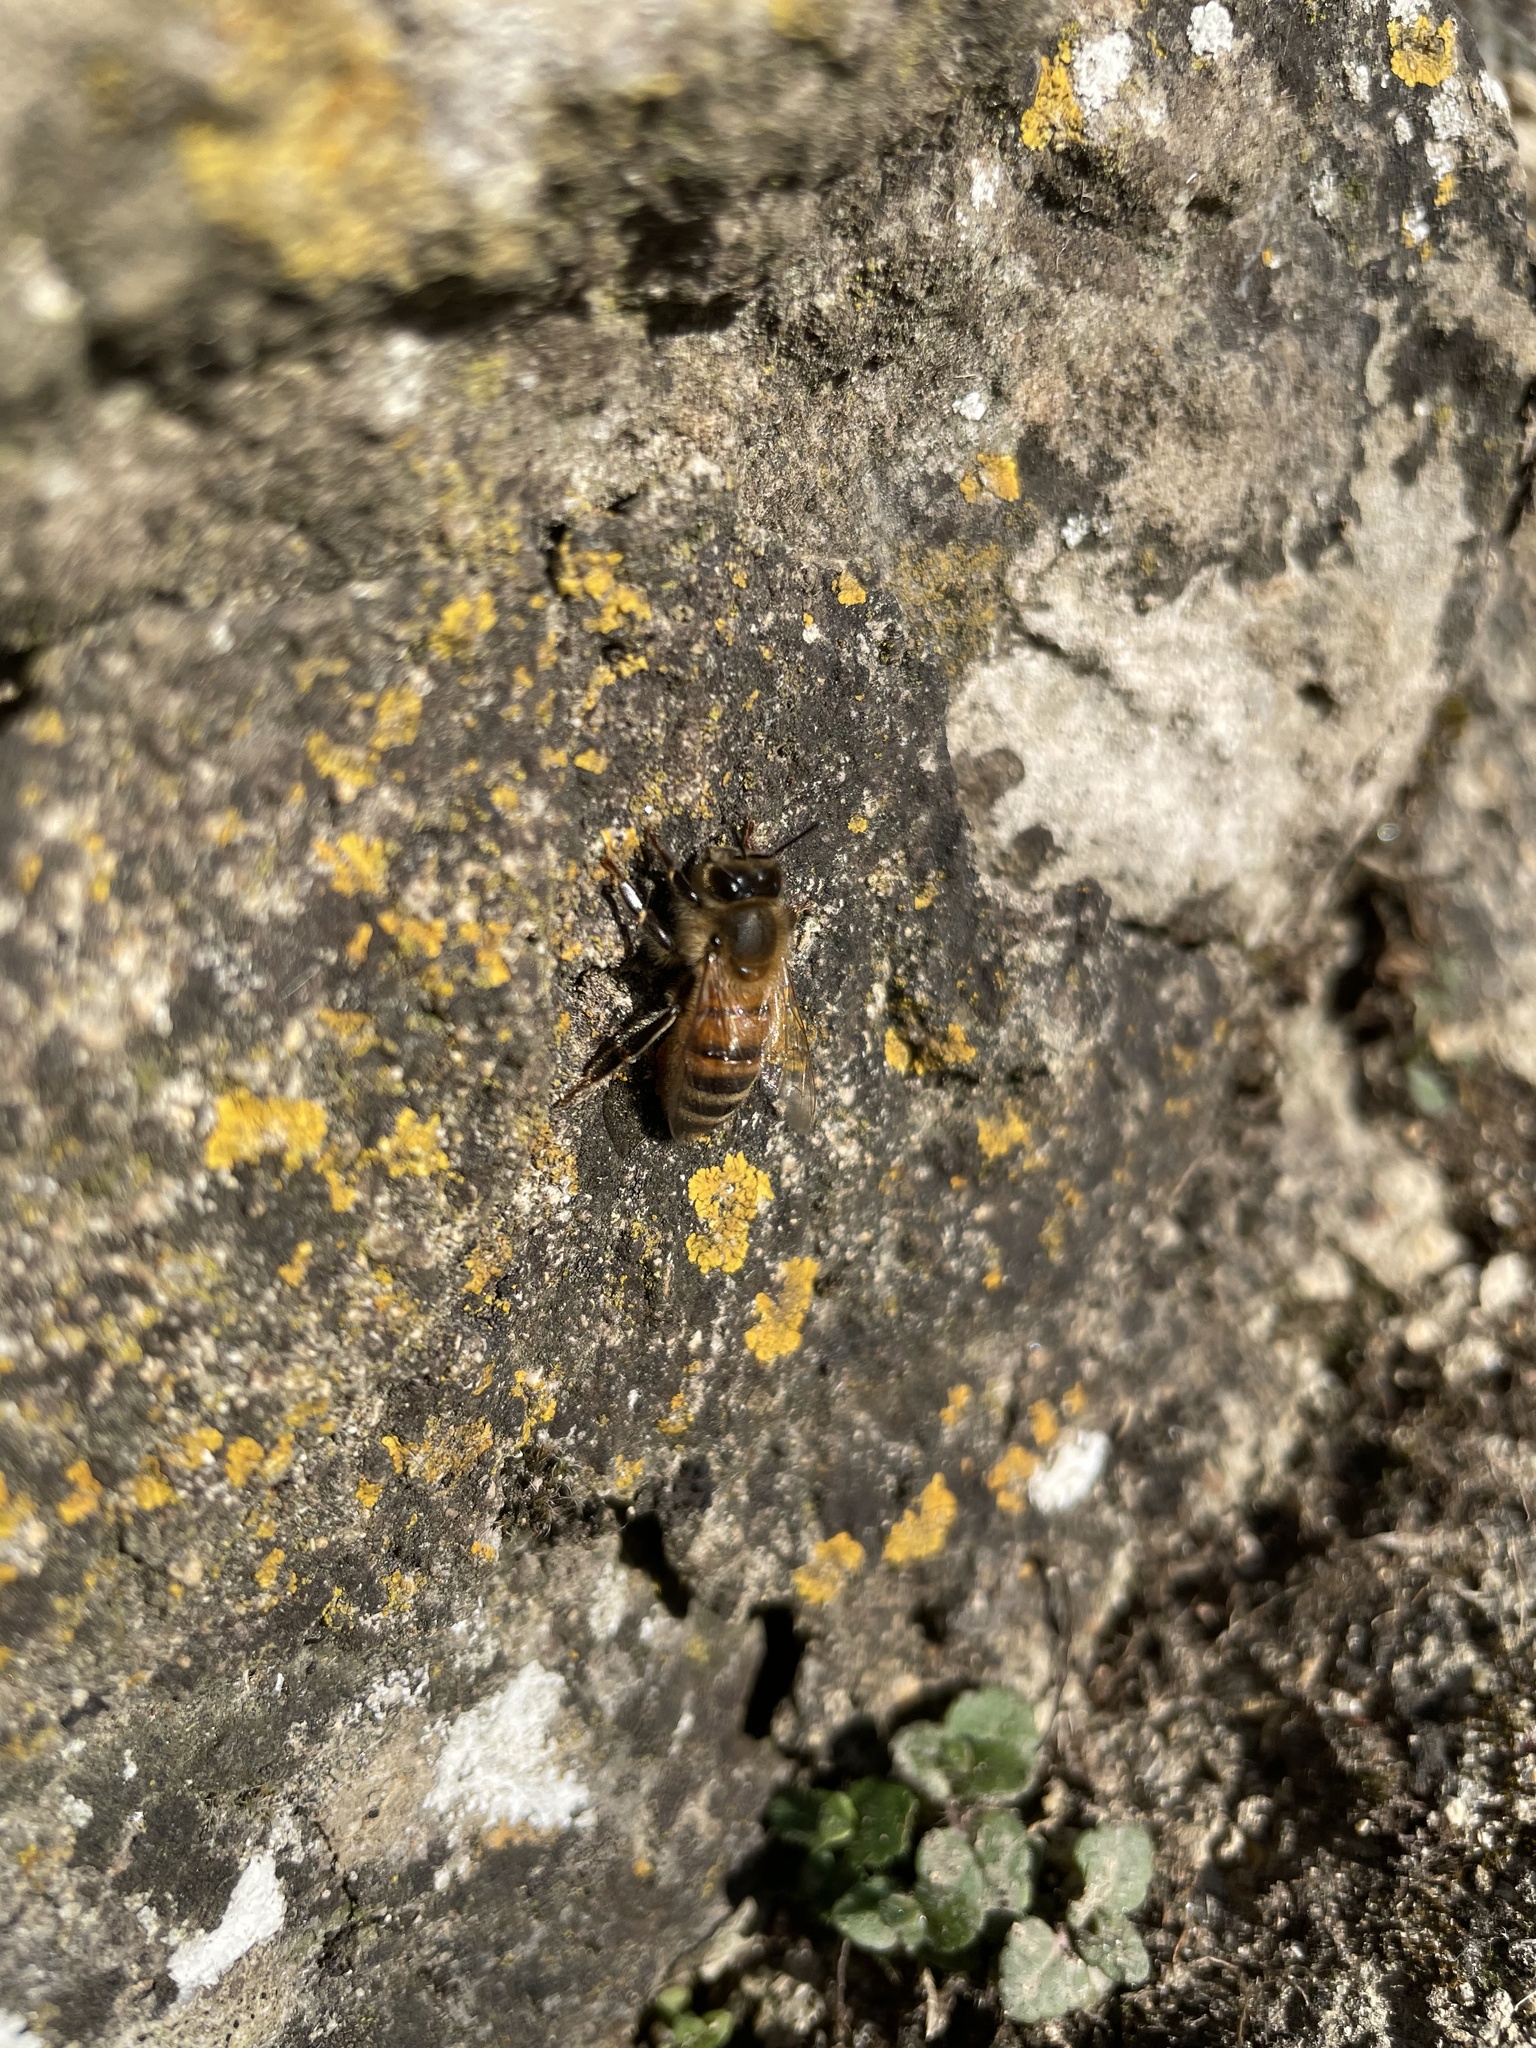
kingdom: Animalia
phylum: Arthropoda
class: Insecta
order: Hymenoptera
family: Apidae
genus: Apis
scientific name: Apis mellifera
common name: Honey bee
